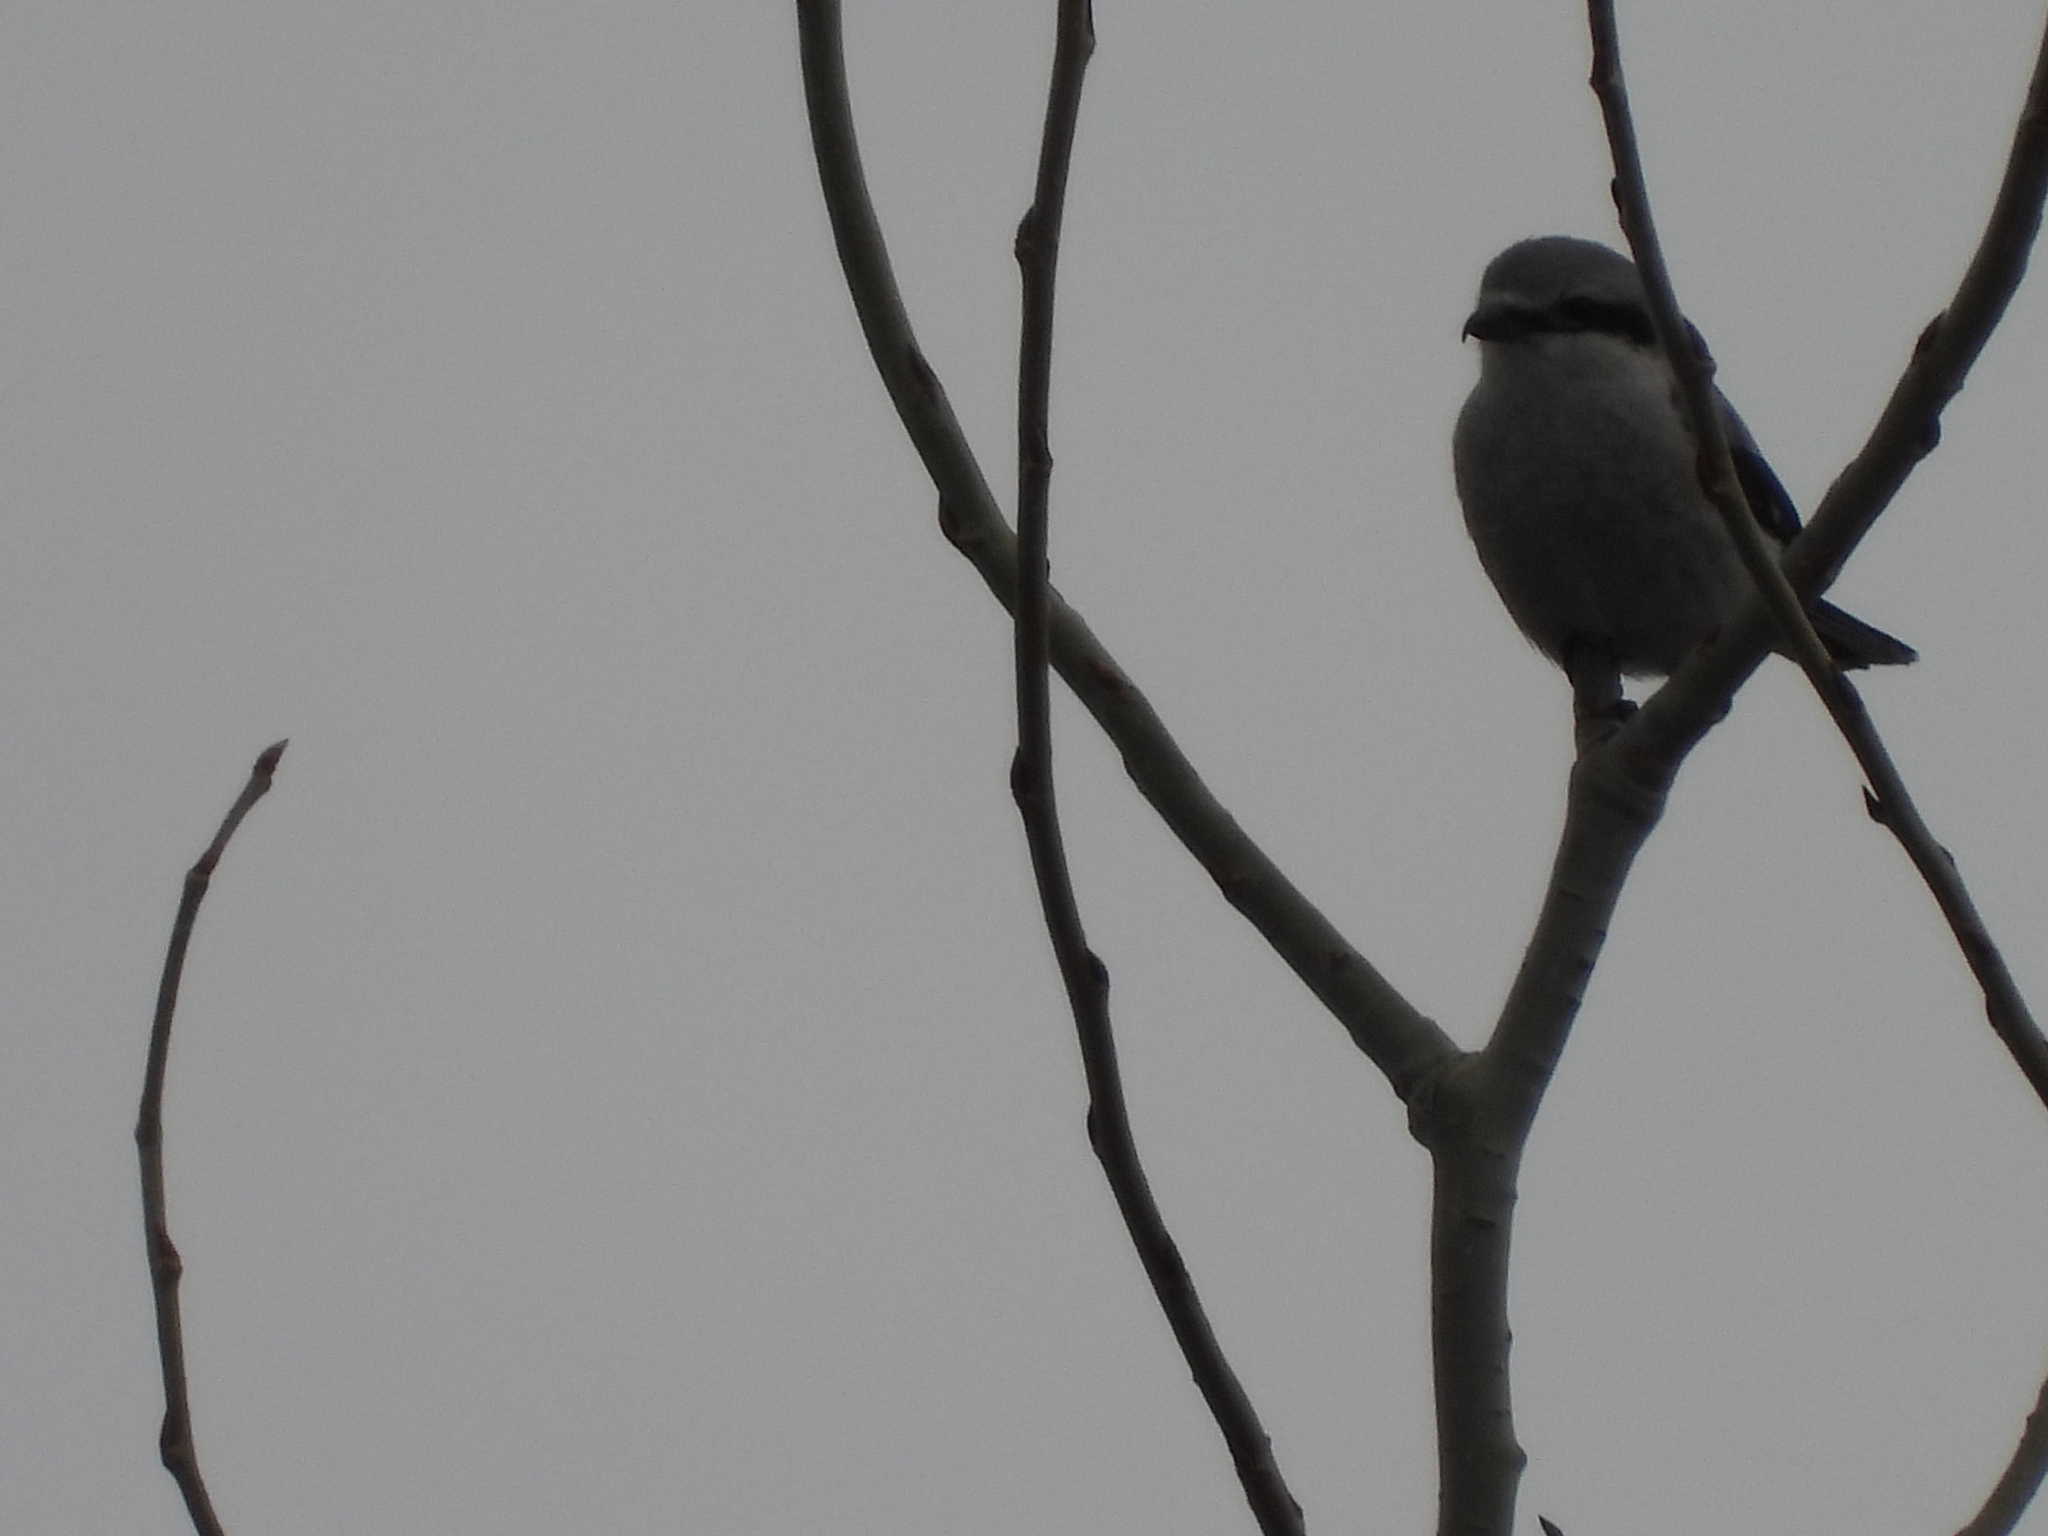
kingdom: Animalia
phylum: Chordata
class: Aves
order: Passeriformes
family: Laniidae
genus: Lanius
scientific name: Lanius borealis
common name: Northern shrike
